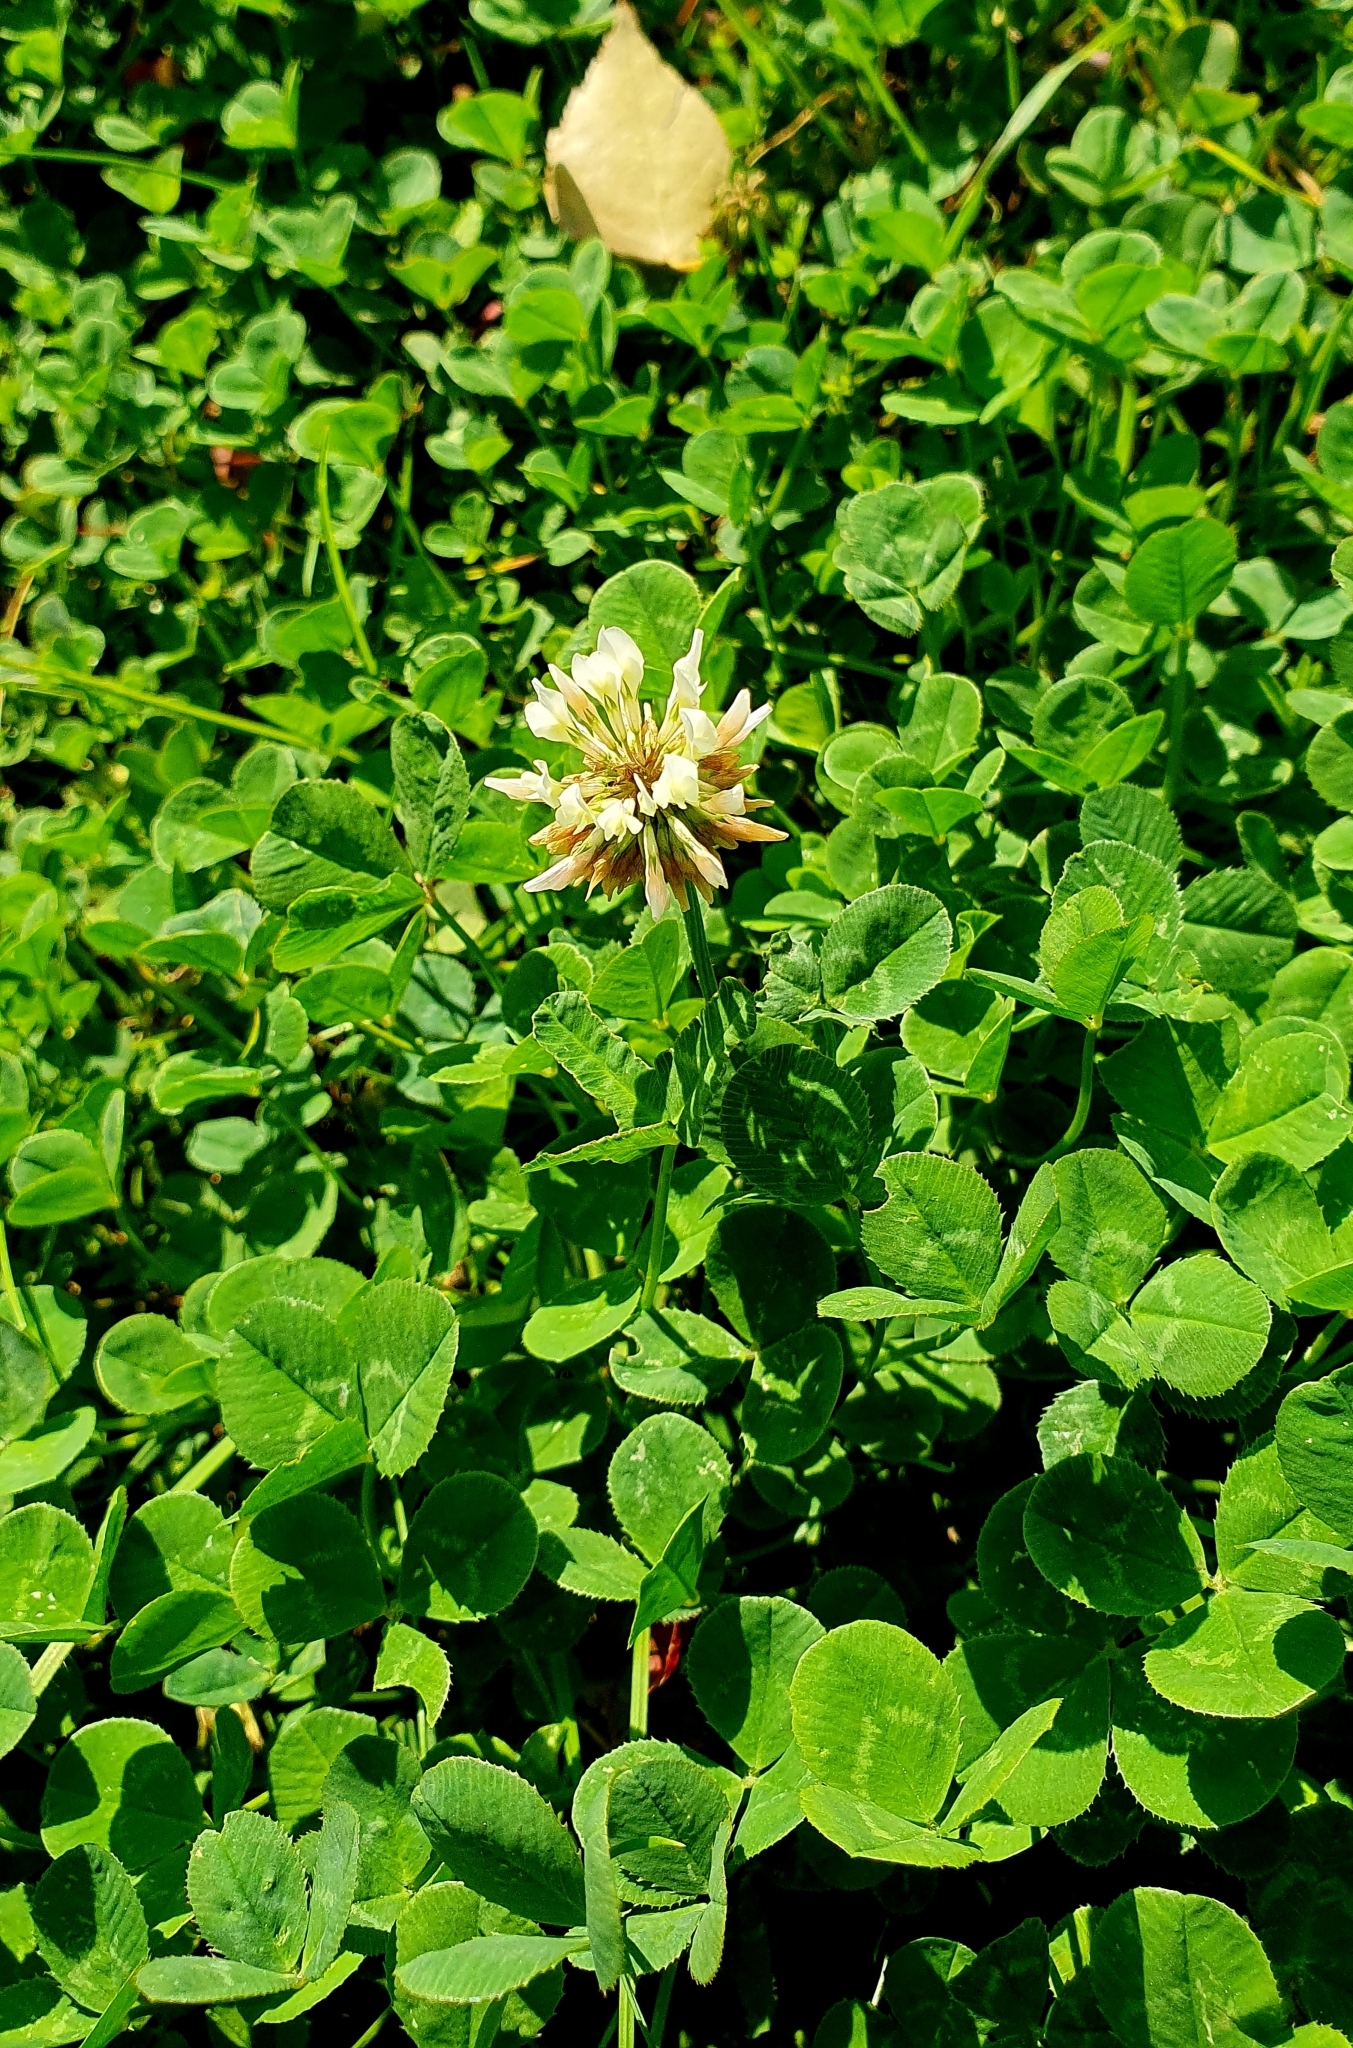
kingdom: Plantae
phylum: Tracheophyta
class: Magnoliopsida
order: Fabales
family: Fabaceae
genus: Trifolium
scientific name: Trifolium repens
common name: White clover
